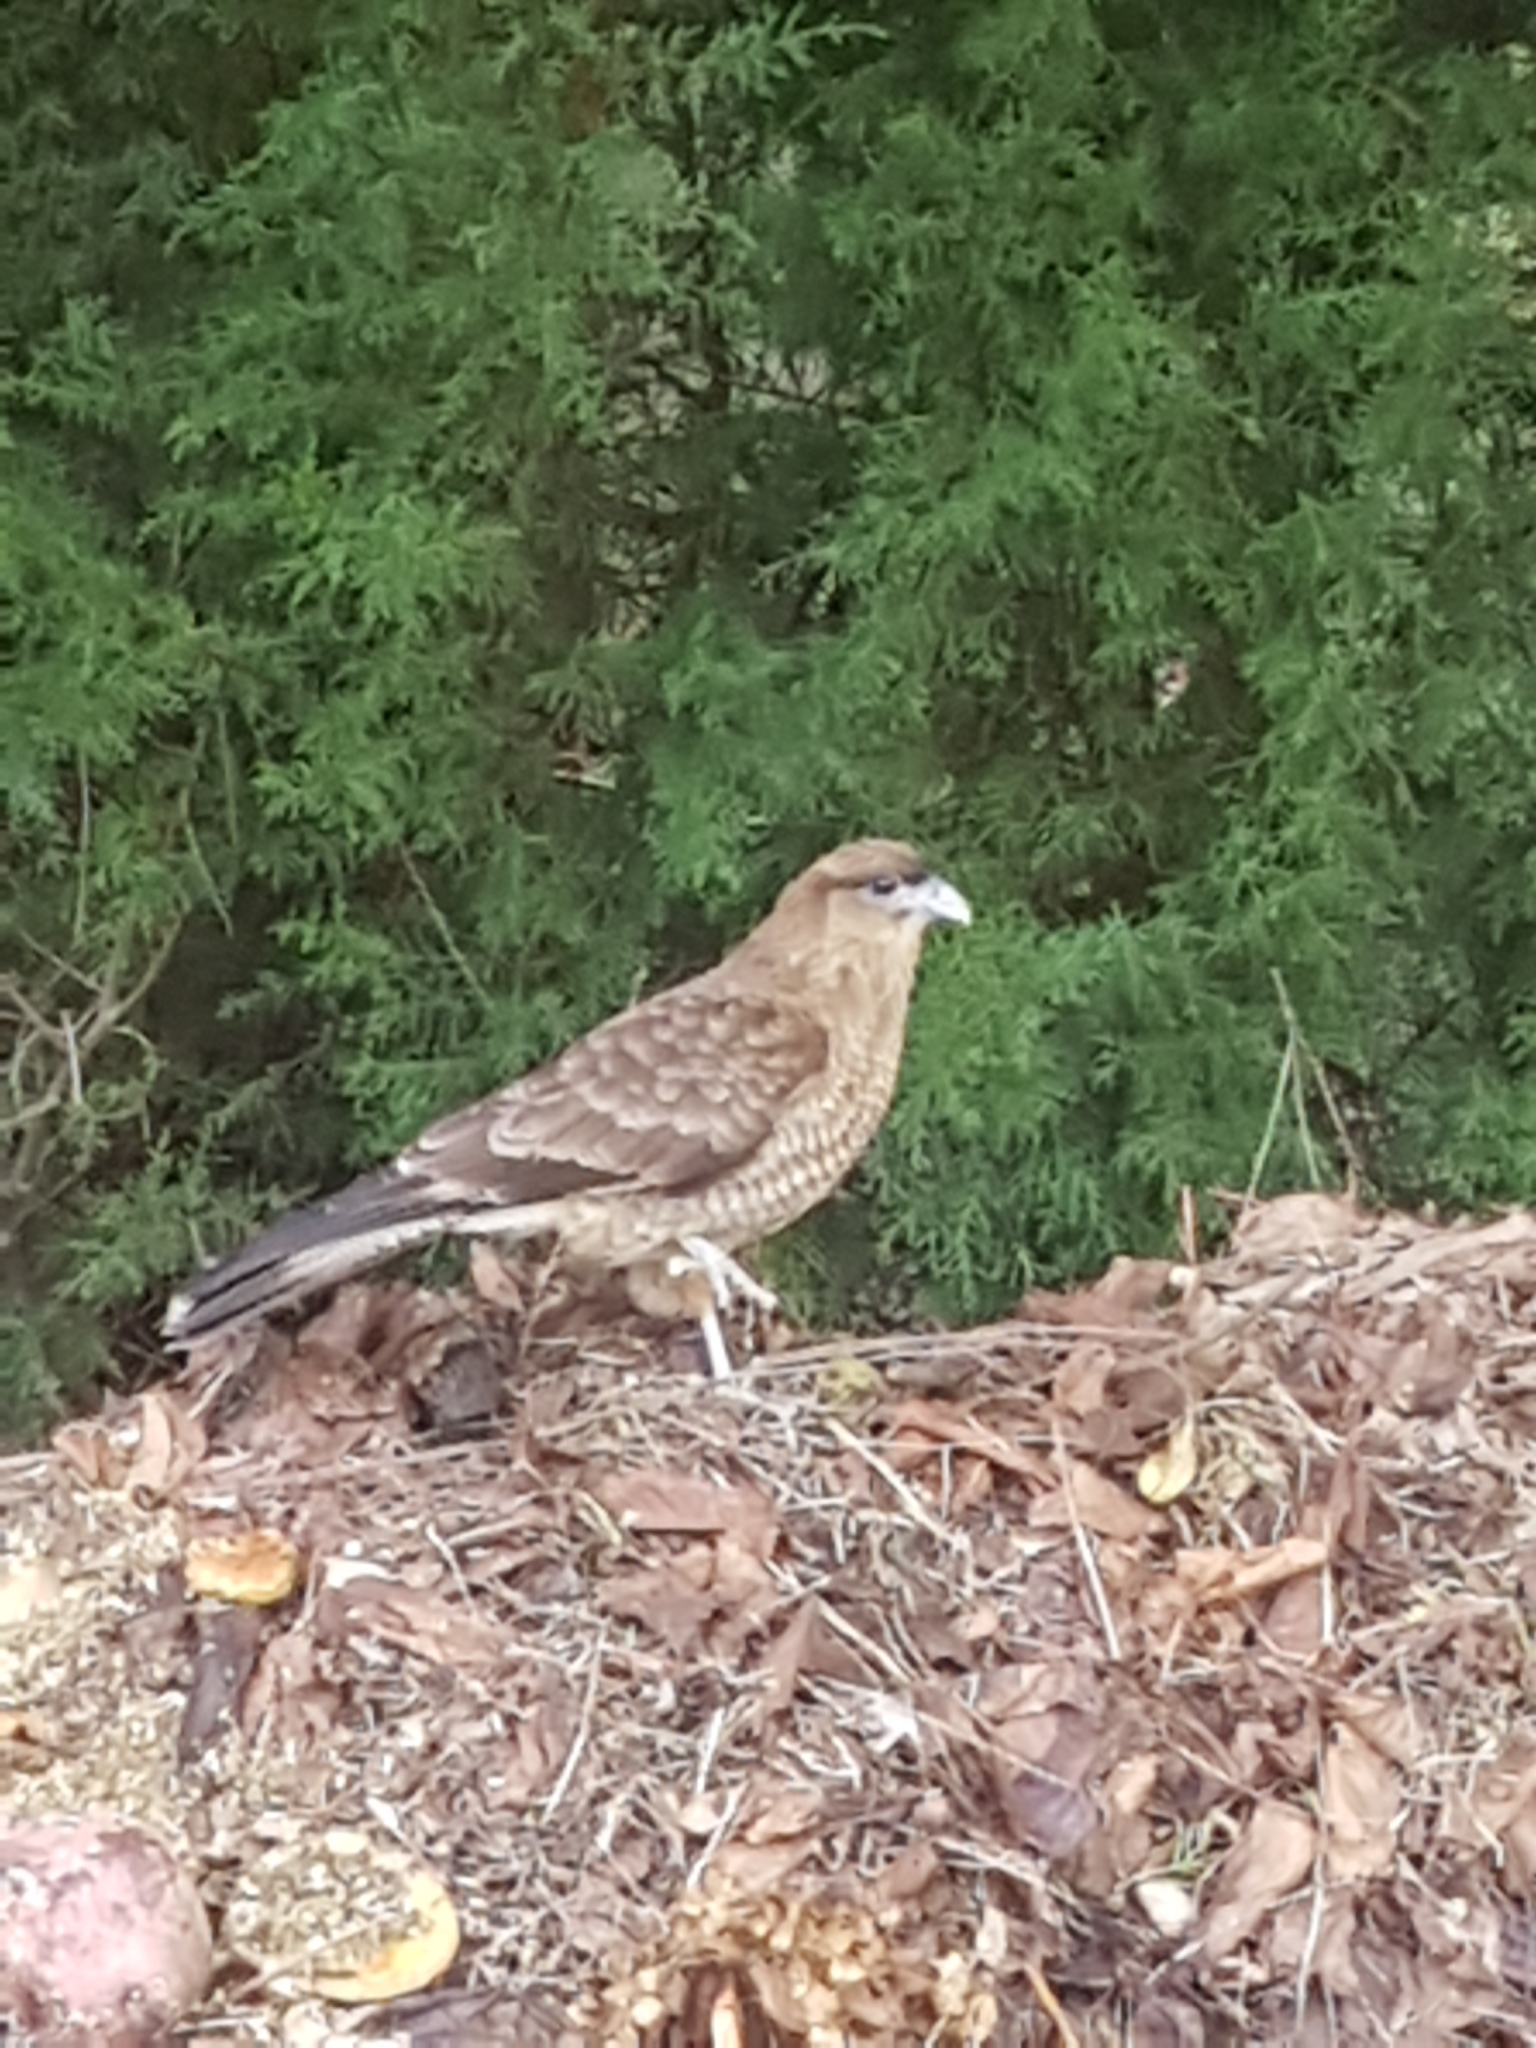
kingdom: Animalia
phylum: Chordata
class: Aves
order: Falconiformes
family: Falconidae
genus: Daptrius
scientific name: Daptrius
